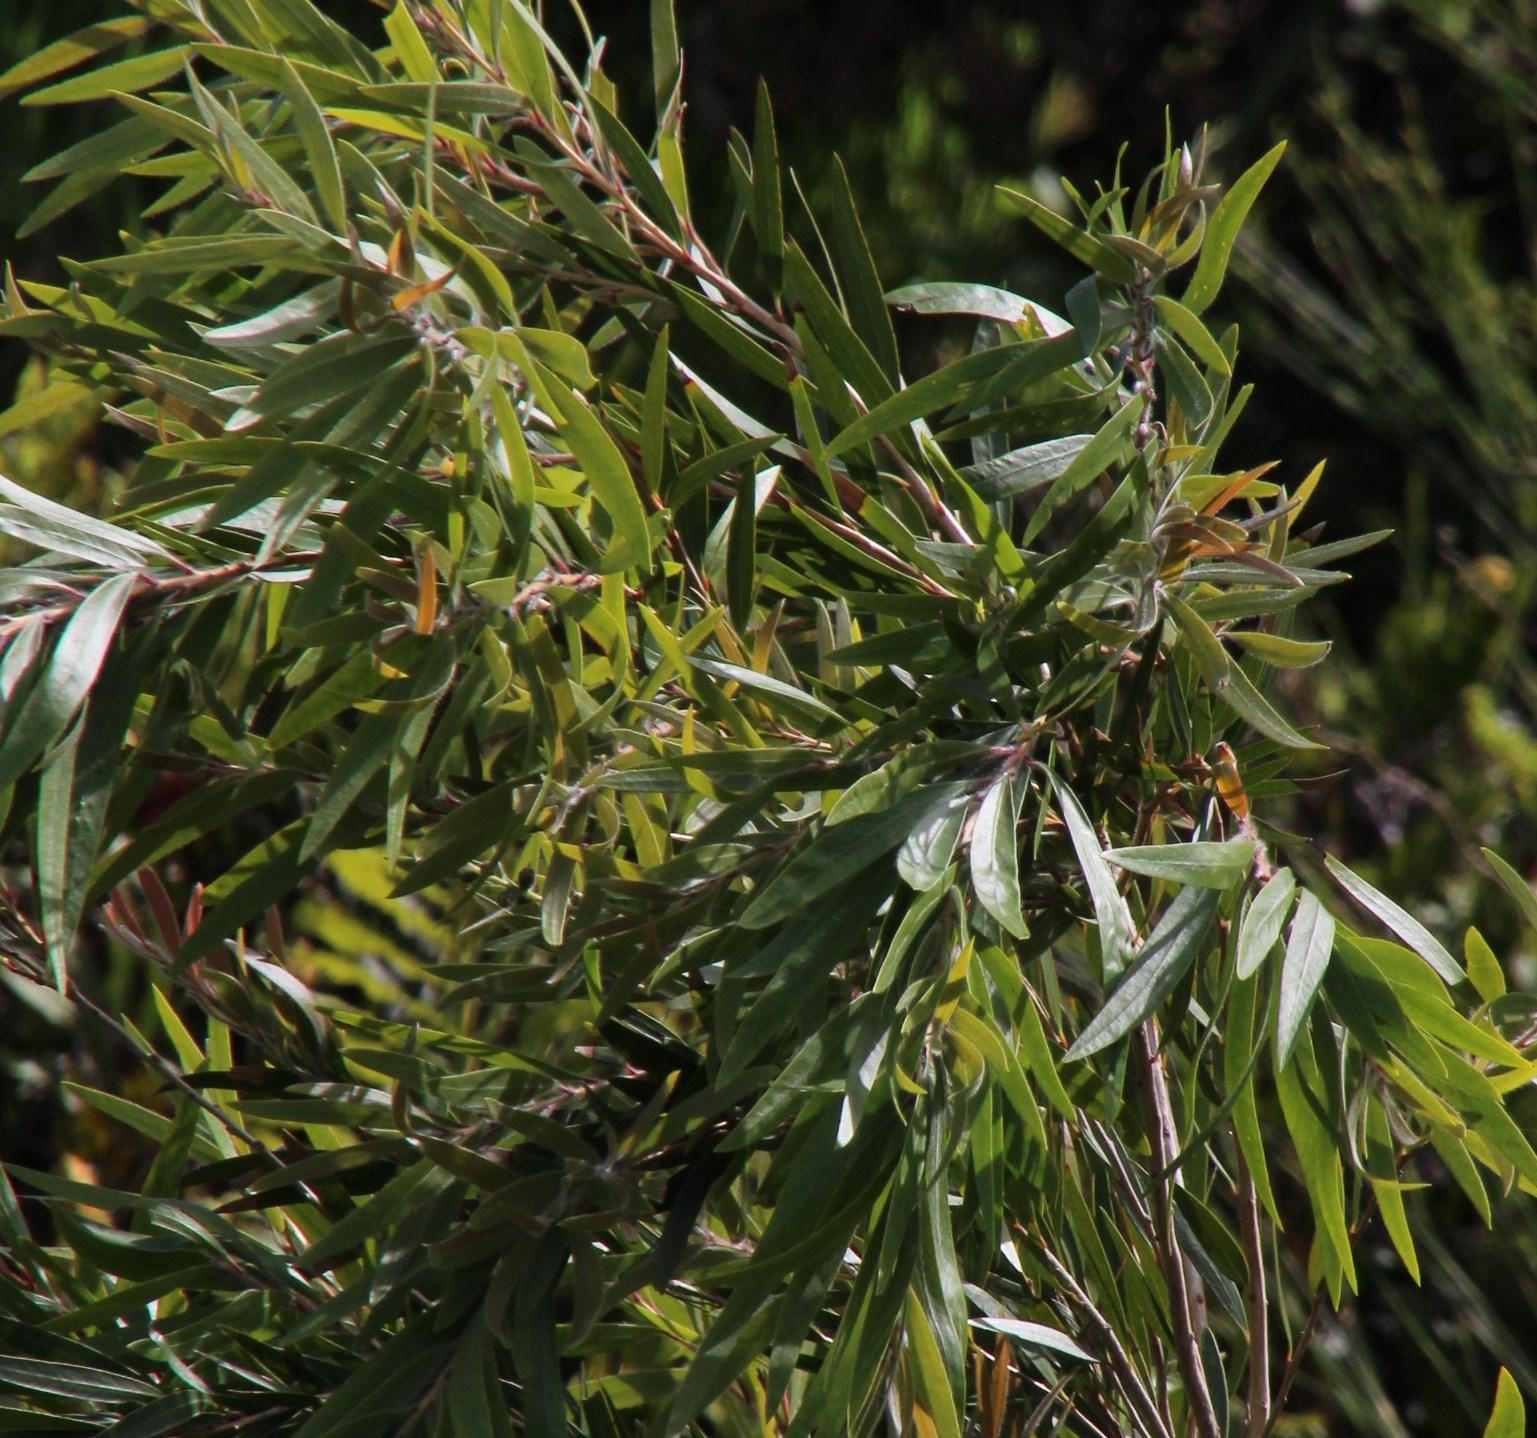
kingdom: Plantae
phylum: Tracheophyta
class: Magnoliopsida
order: Myrtales
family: Myrtaceae
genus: Callistemon
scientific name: Callistemon viminalis
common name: Drooping bottlebrush
